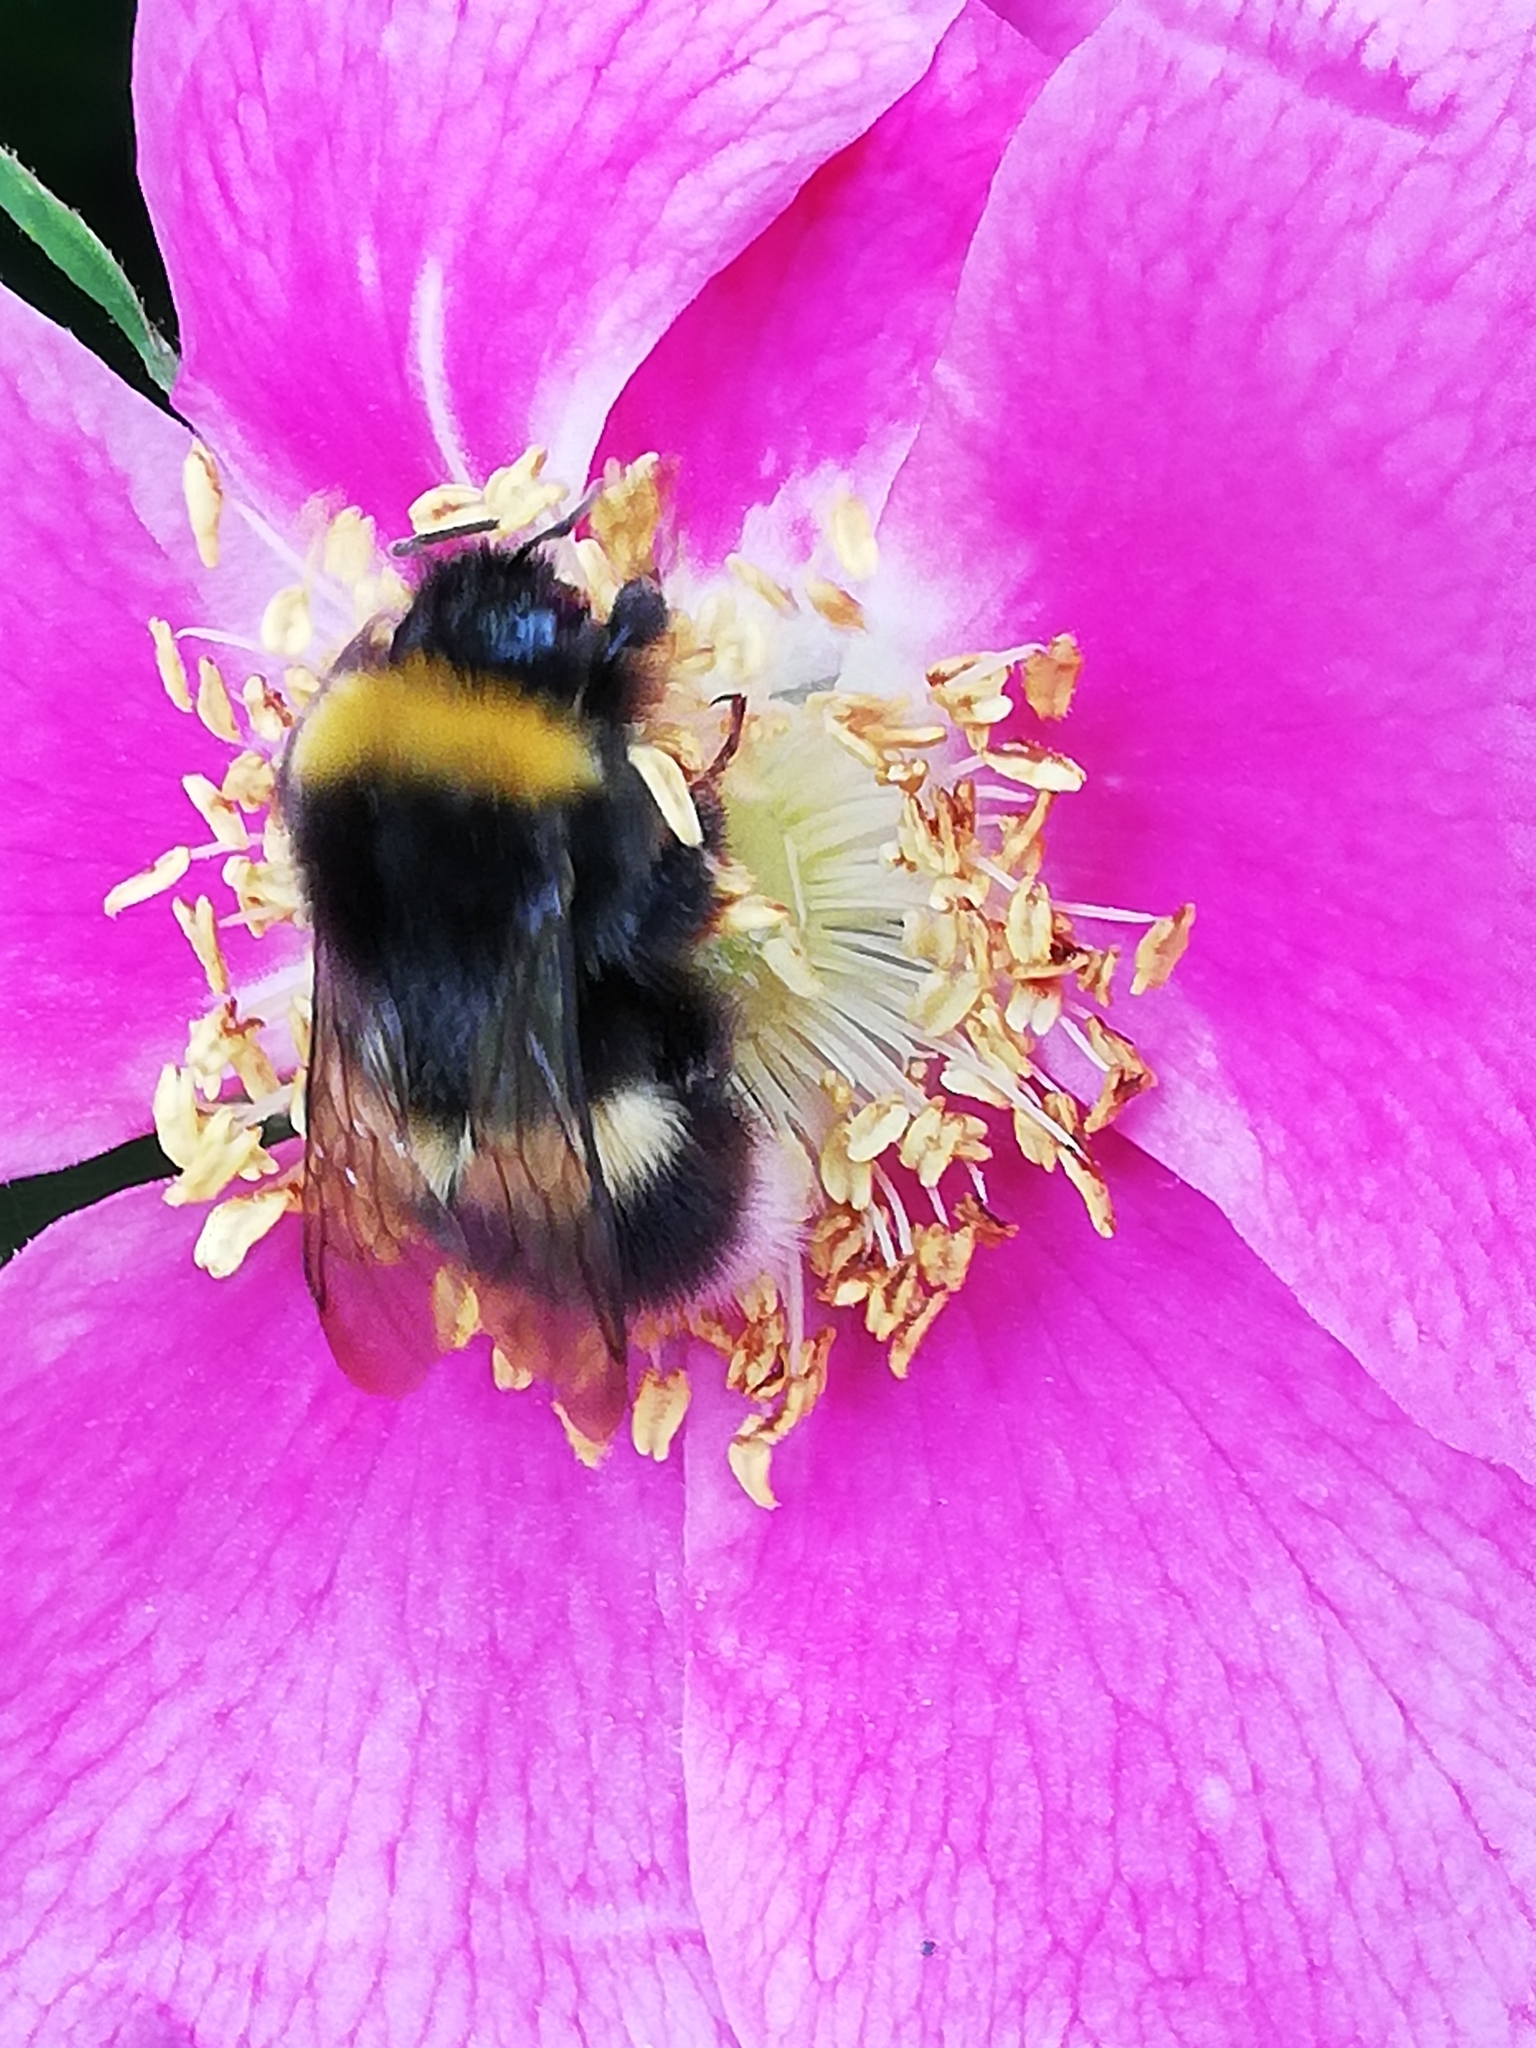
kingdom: Animalia
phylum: Arthropoda
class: Insecta
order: Hymenoptera
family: Apidae
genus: Bombus
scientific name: Bombus lucorum
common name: White-tailed bumblebee
